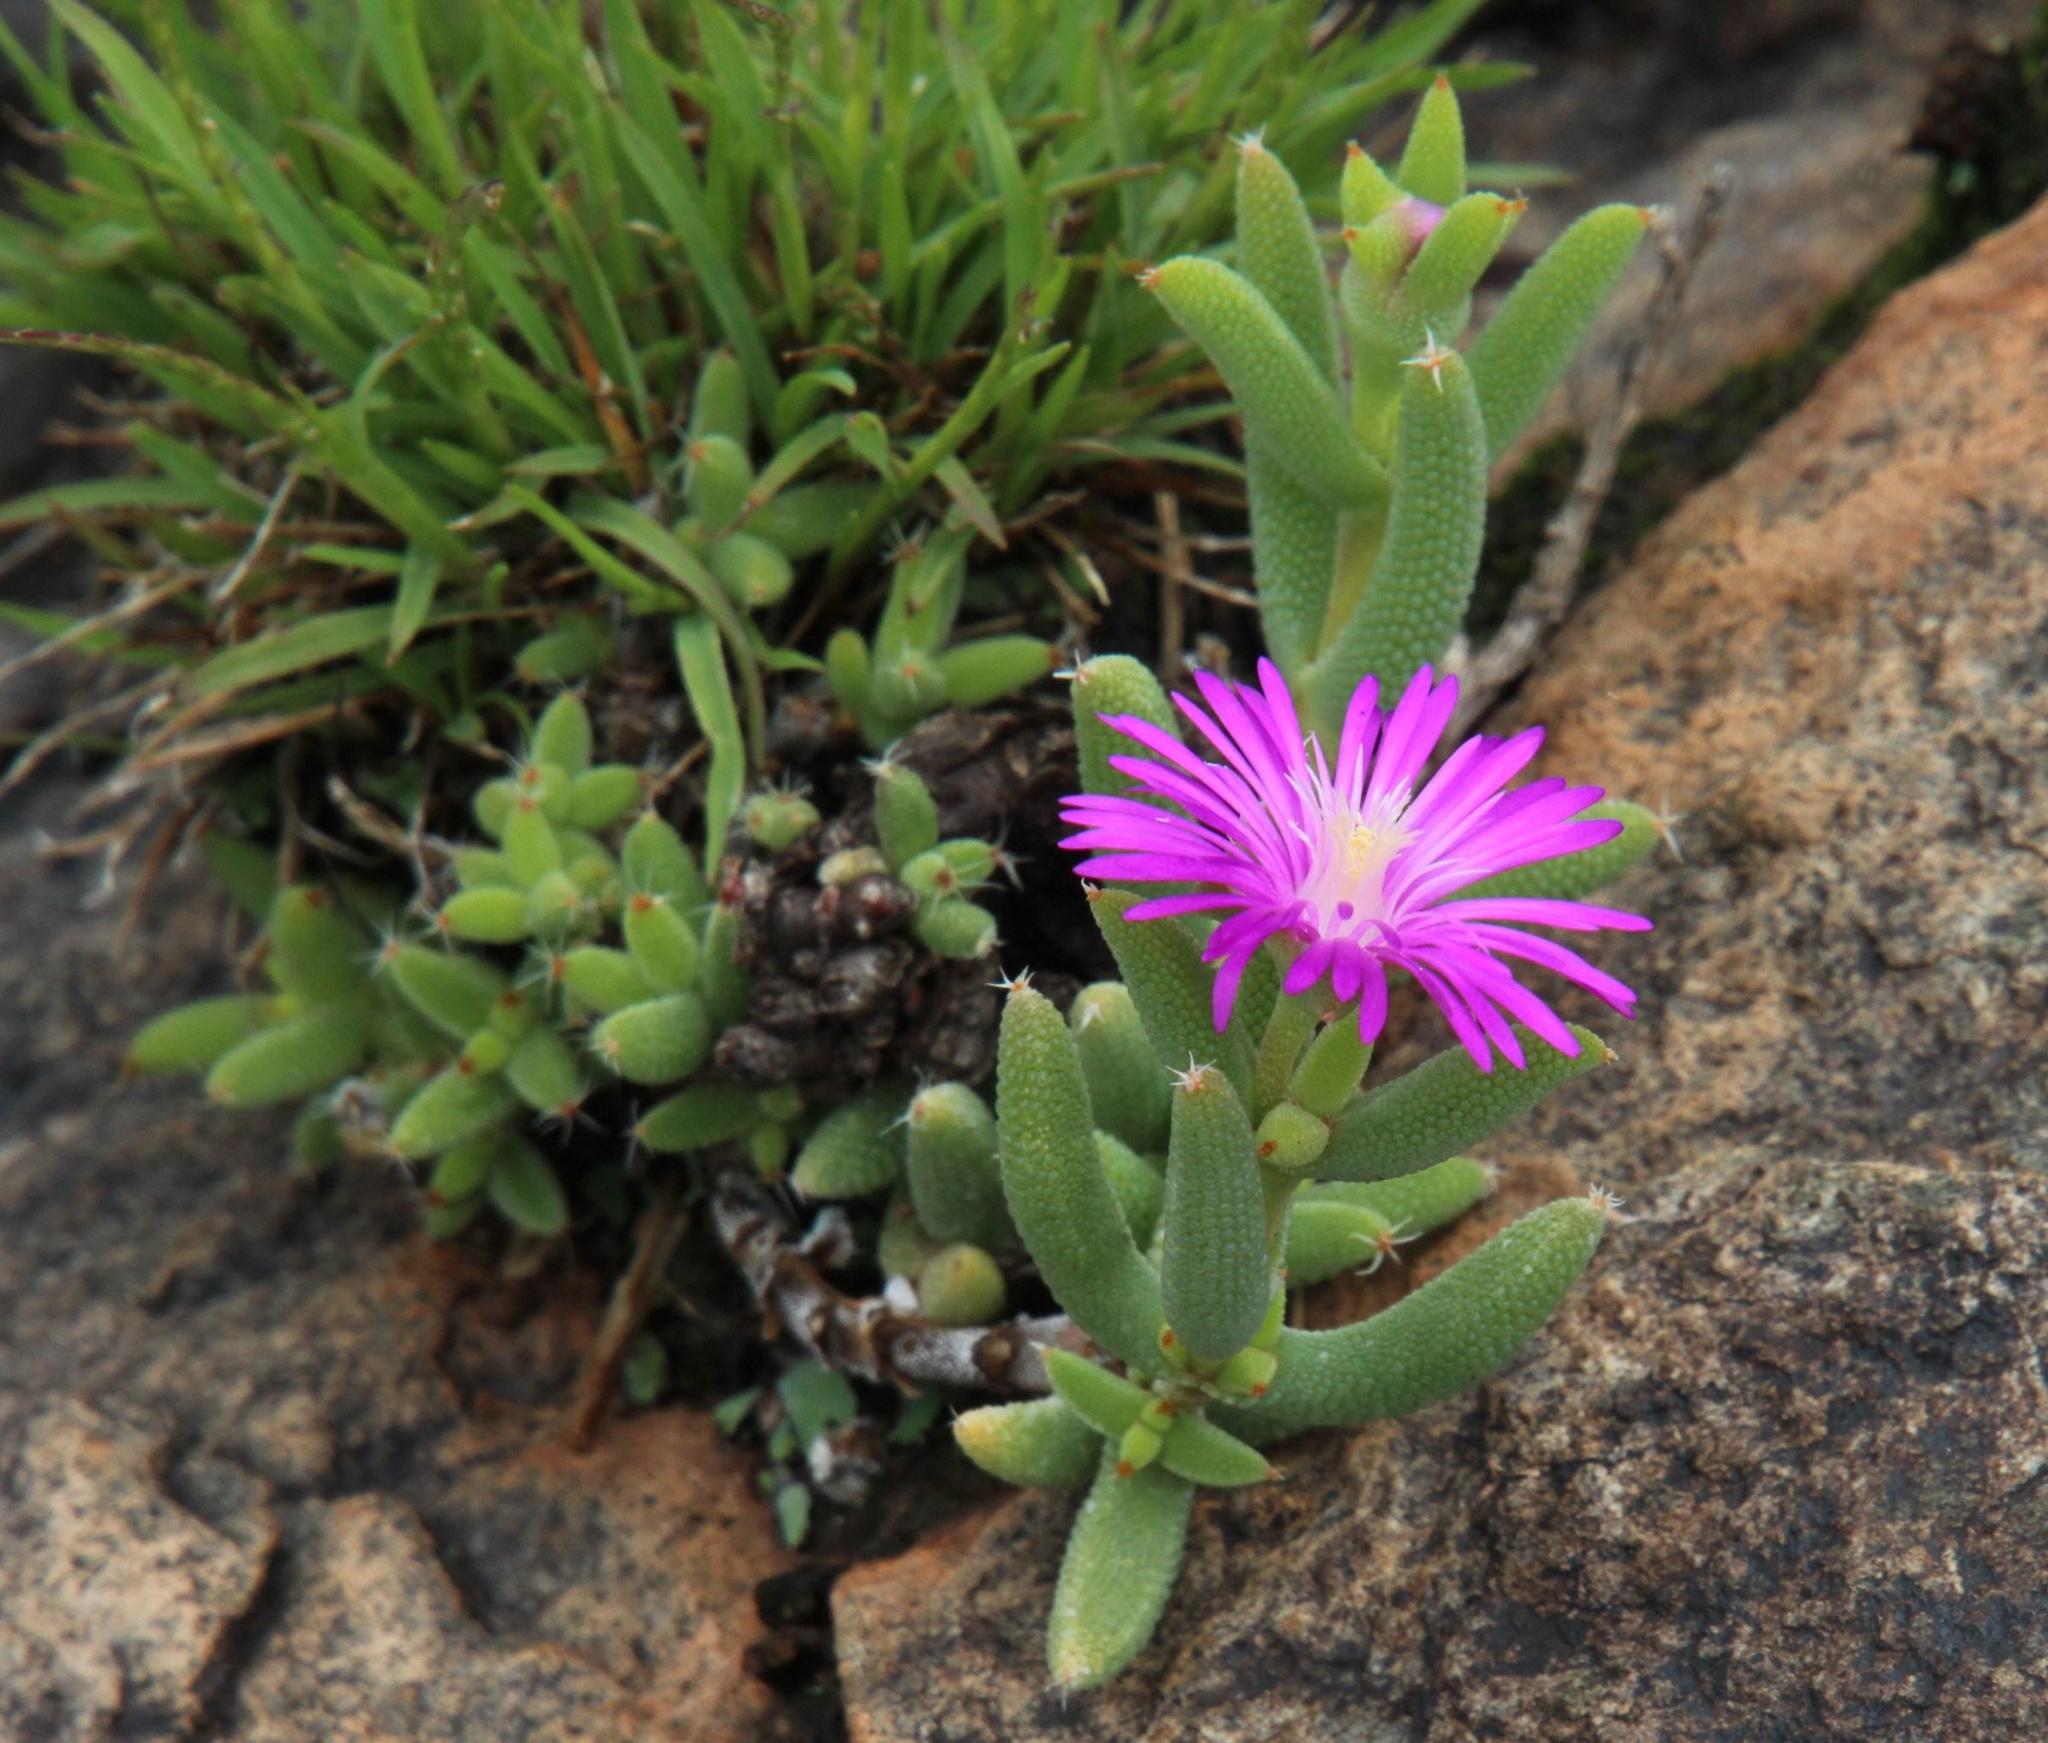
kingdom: Plantae
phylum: Tracheophyta
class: Magnoliopsida
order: Caryophyllales
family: Aizoaceae
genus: Trichodiadema
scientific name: Trichodiadema rogersiae
